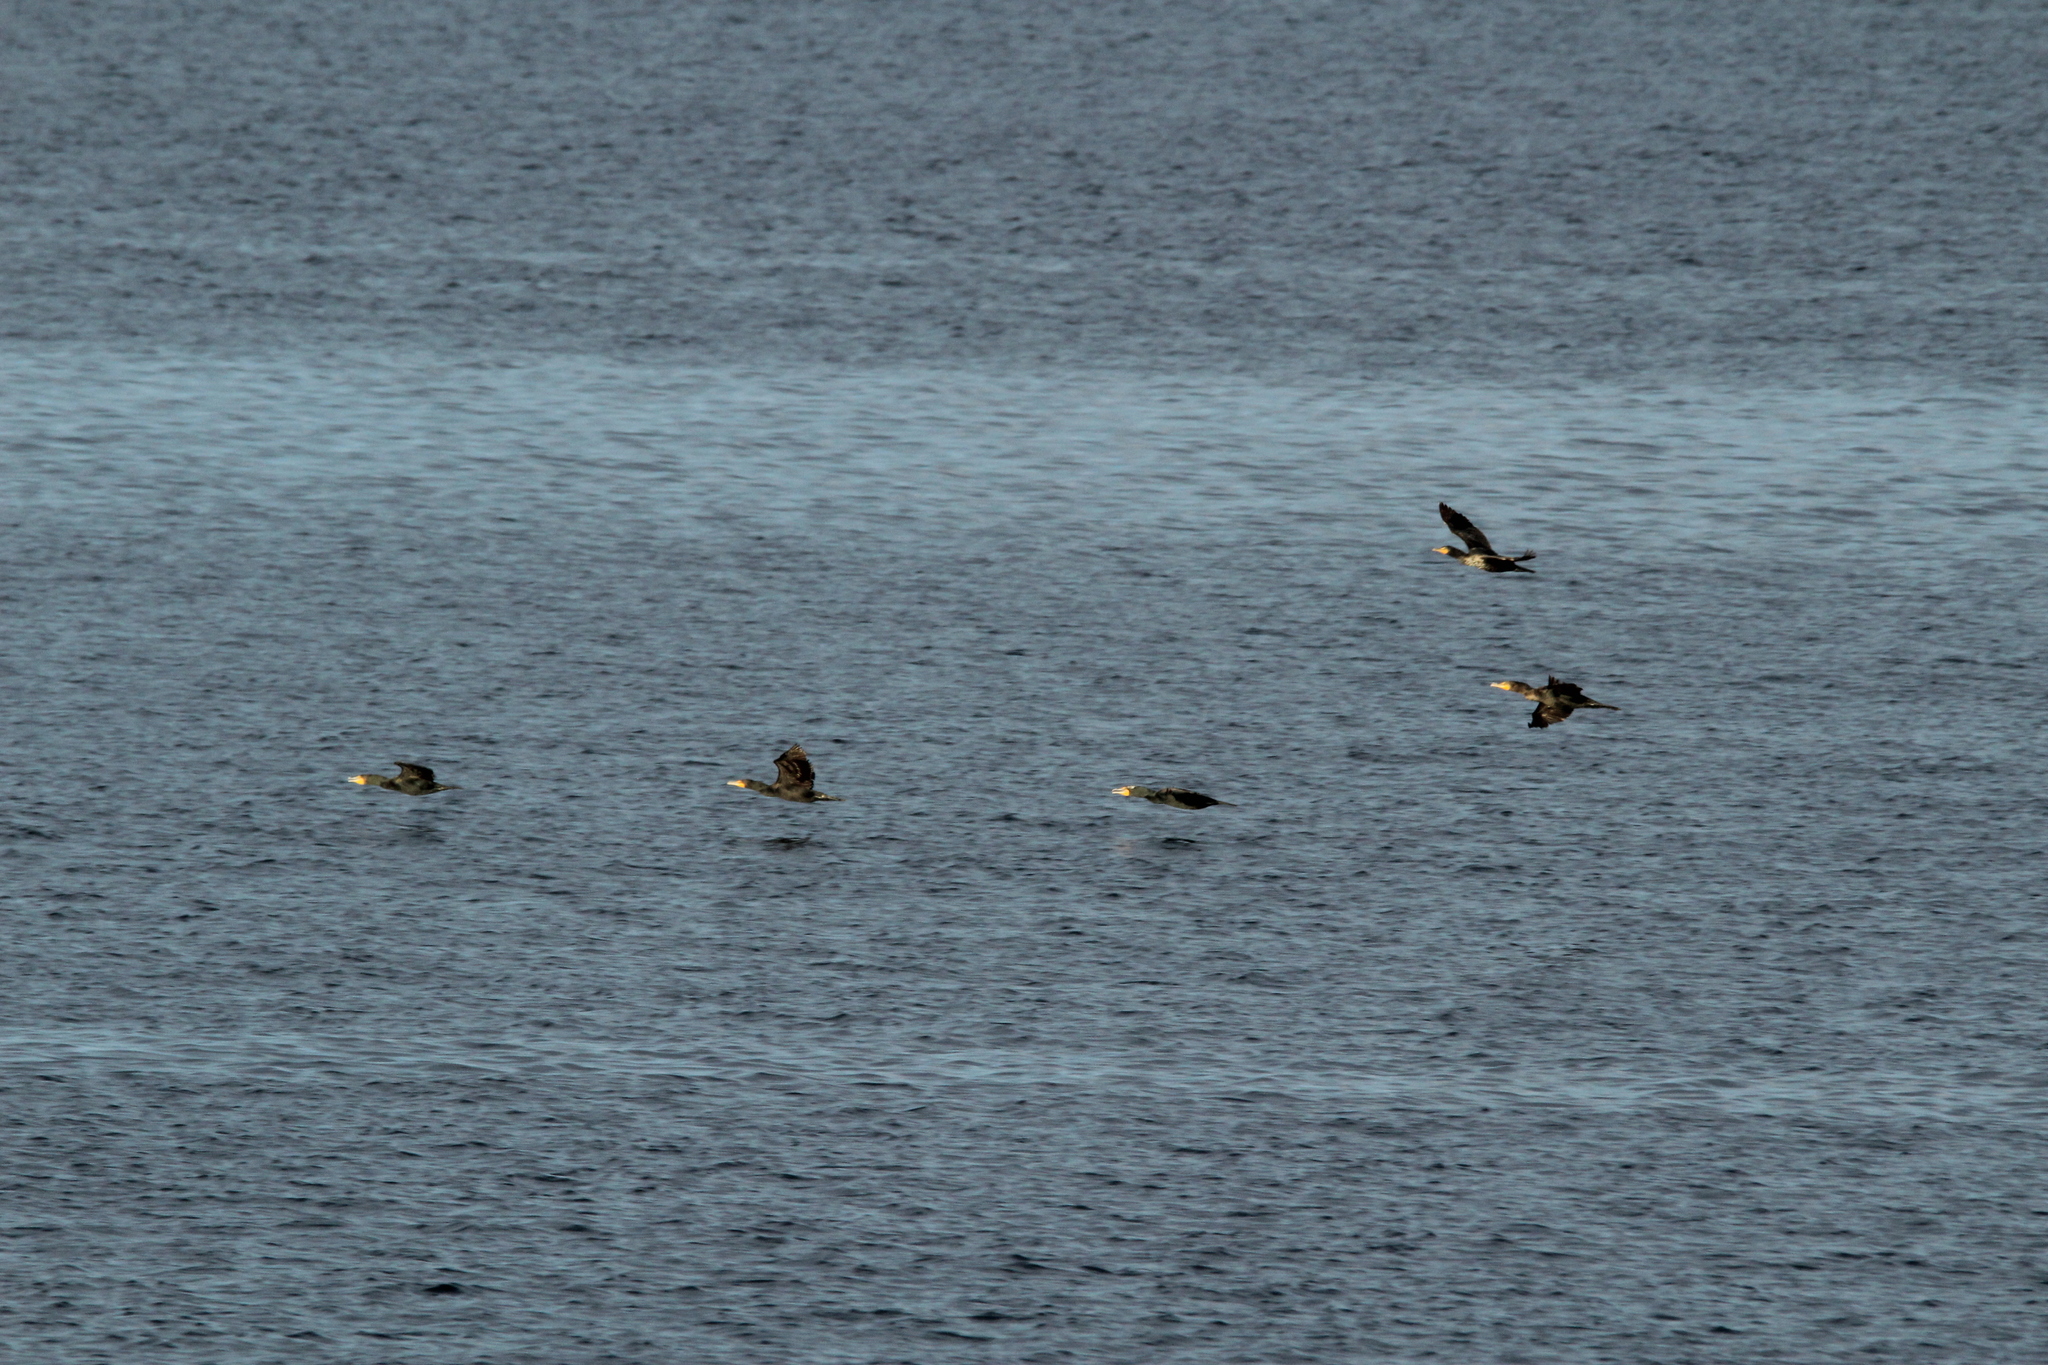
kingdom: Animalia
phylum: Chordata
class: Aves
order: Suliformes
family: Phalacrocoracidae
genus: Phalacrocorax
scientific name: Phalacrocorax auritus
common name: Double-crested cormorant
